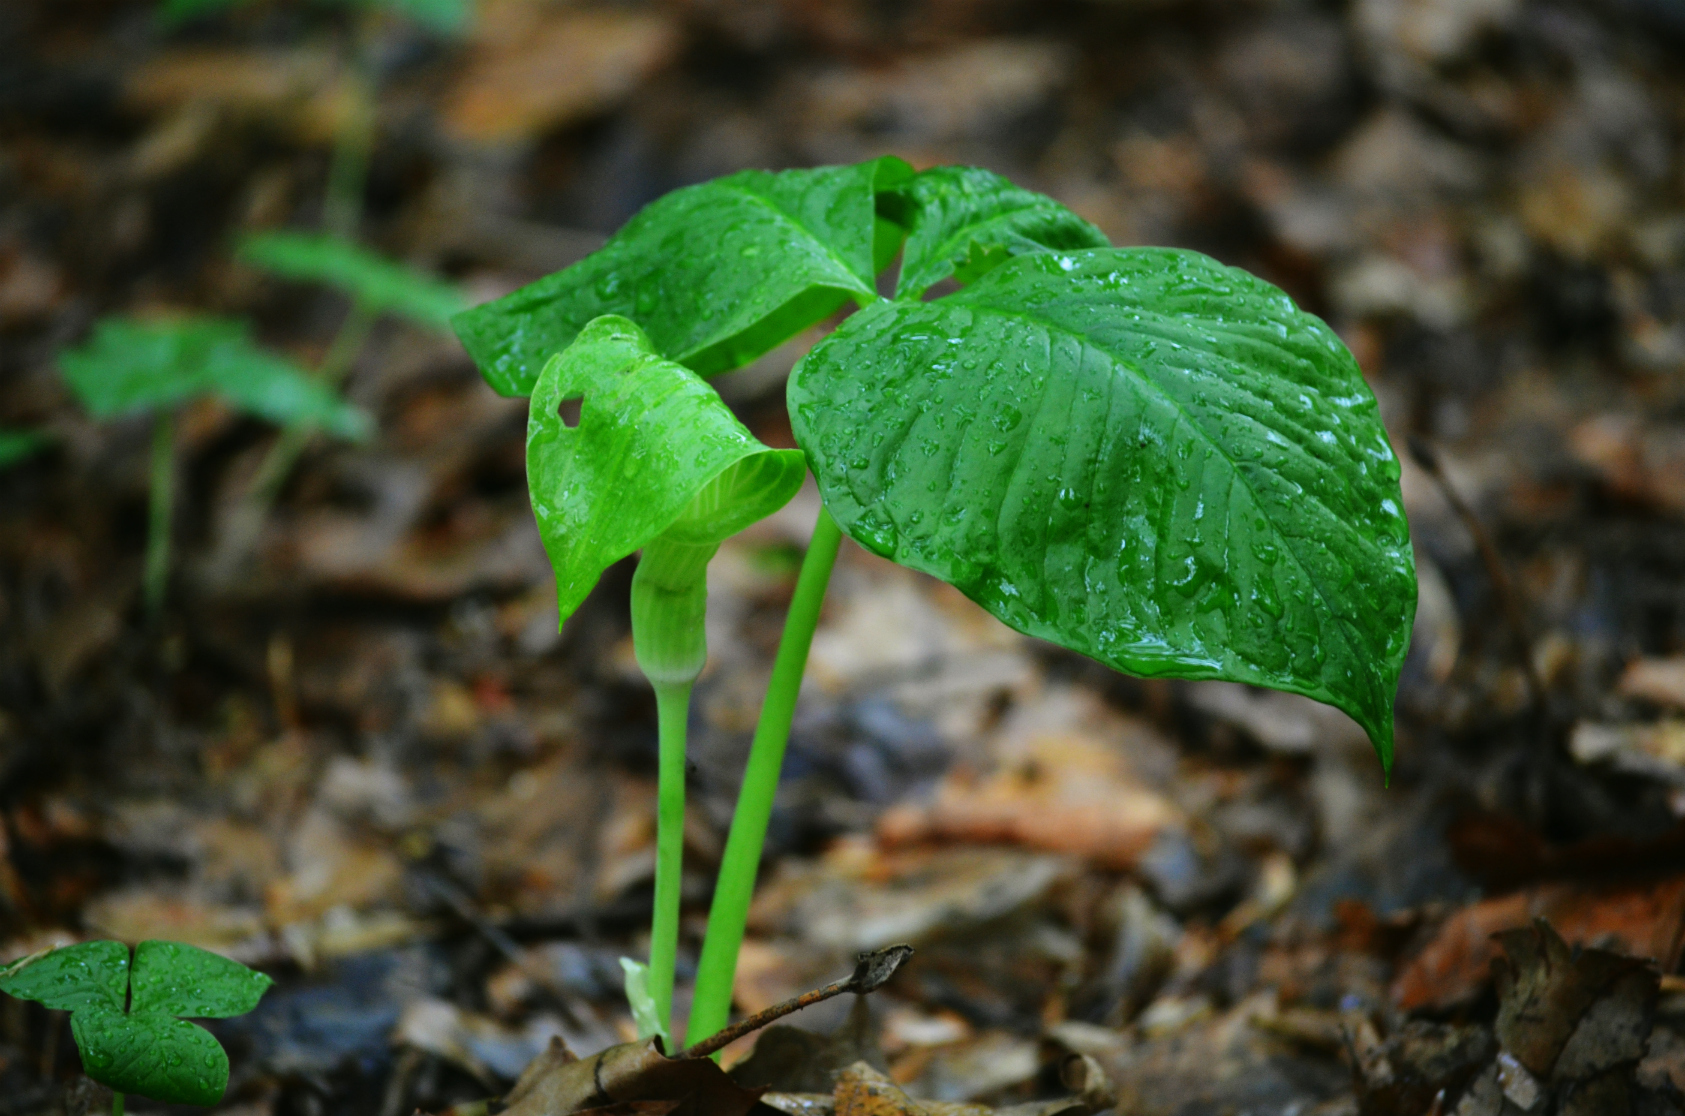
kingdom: Plantae
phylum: Tracheophyta
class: Liliopsida
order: Alismatales
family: Araceae
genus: Arisaema
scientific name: Arisaema triphyllum
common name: Jack-in-the-pulpit
